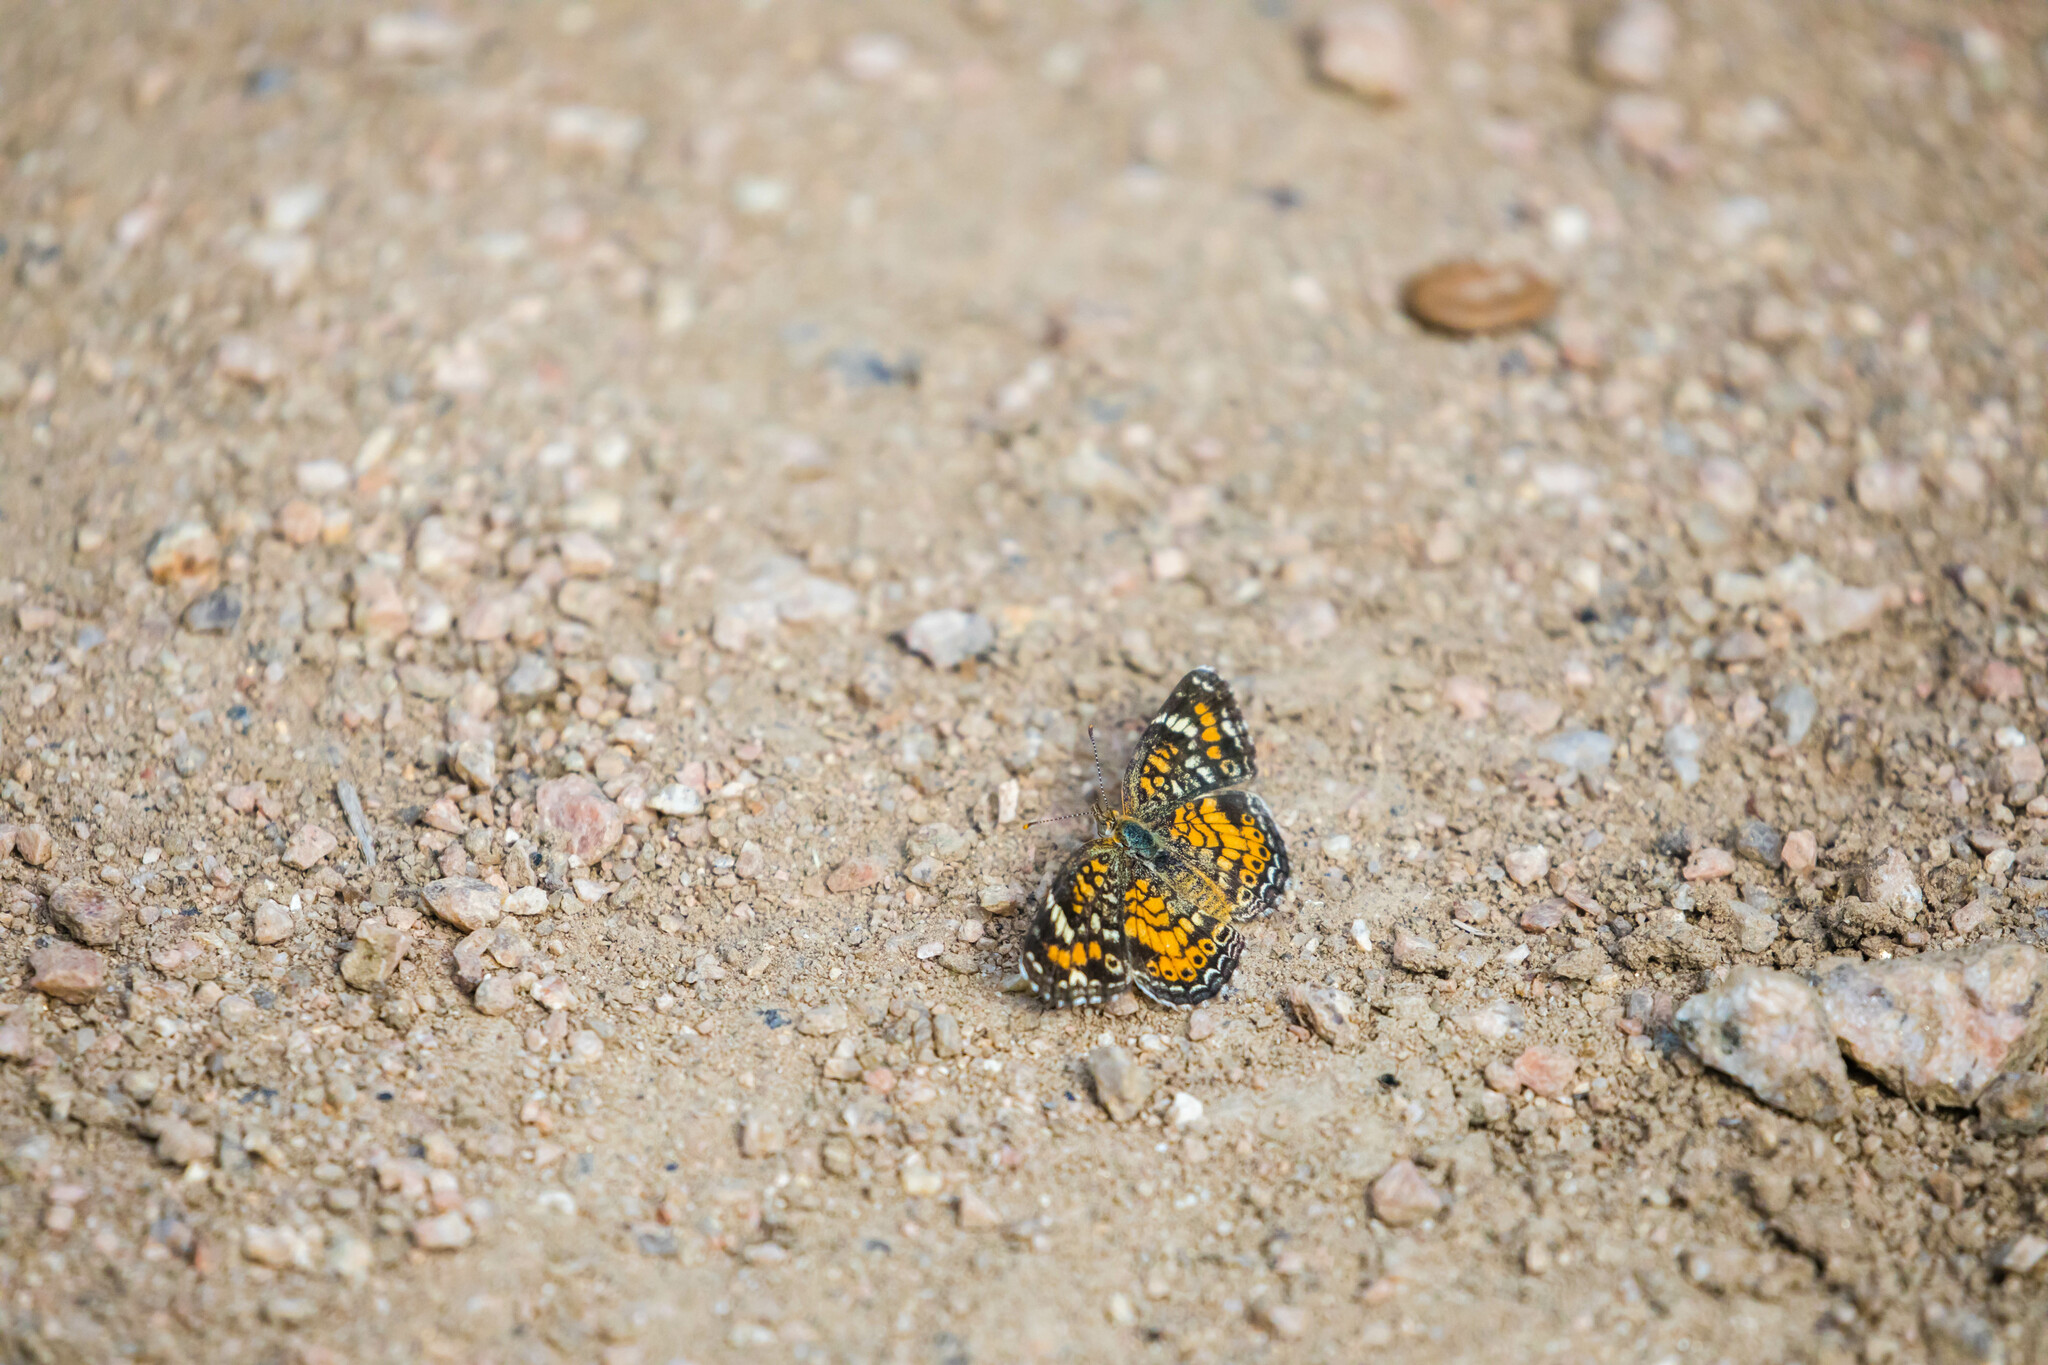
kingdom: Animalia
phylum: Arthropoda
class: Insecta
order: Lepidoptera
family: Nymphalidae
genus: Phyciodes
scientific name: Phyciodes phaon
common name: Phaon crescent
